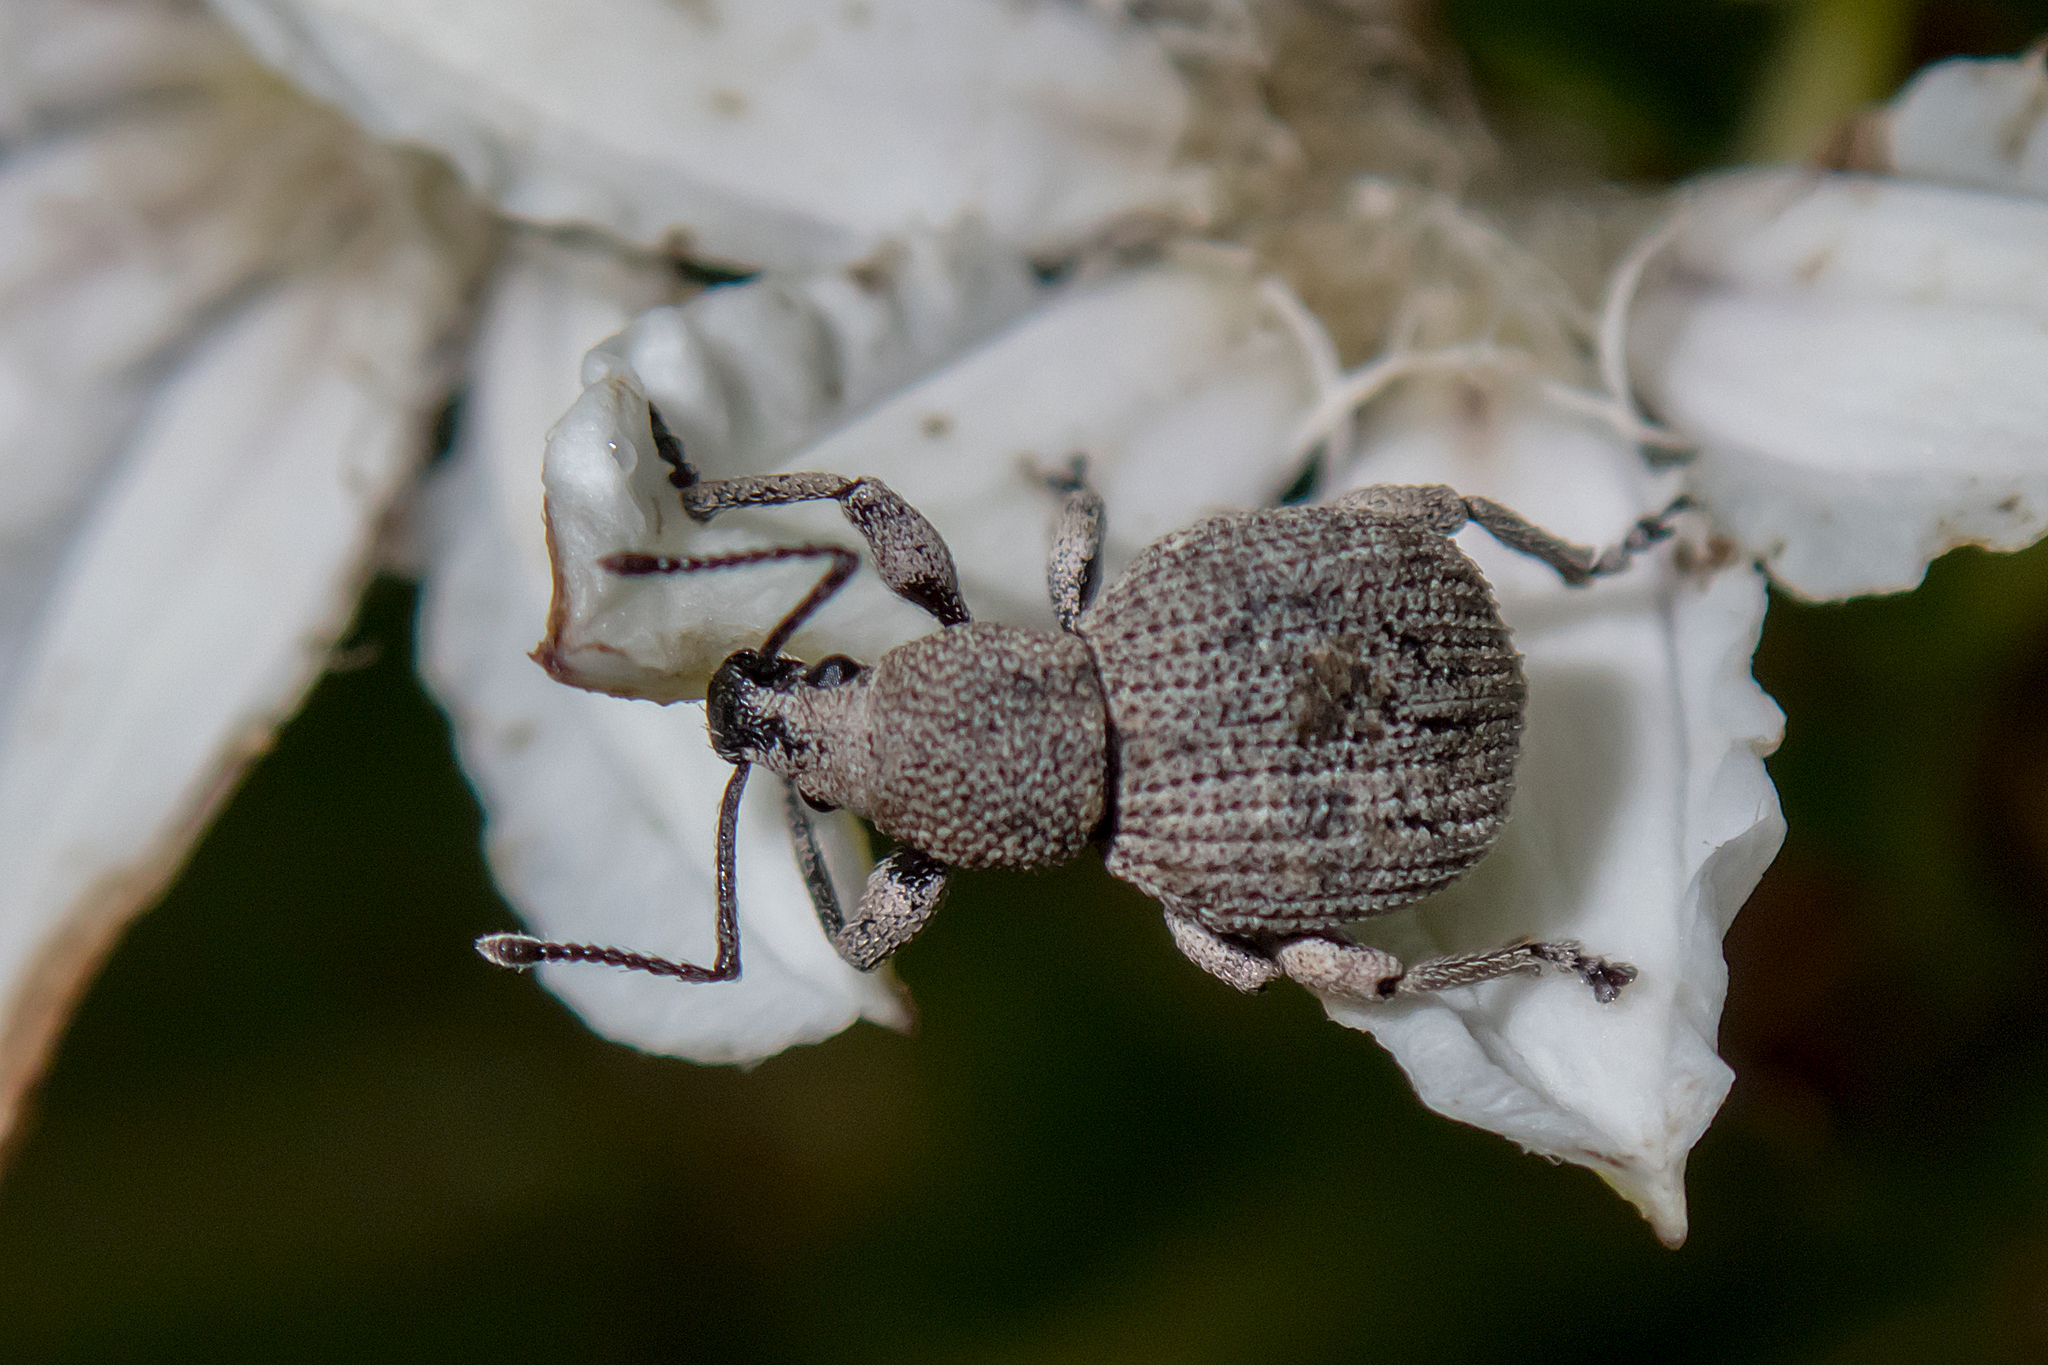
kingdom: Animalia
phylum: Arthropoda
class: Insecta
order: Coleoptera
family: Curculionidae
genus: Celeuthetes
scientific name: Celeuthetes australis
